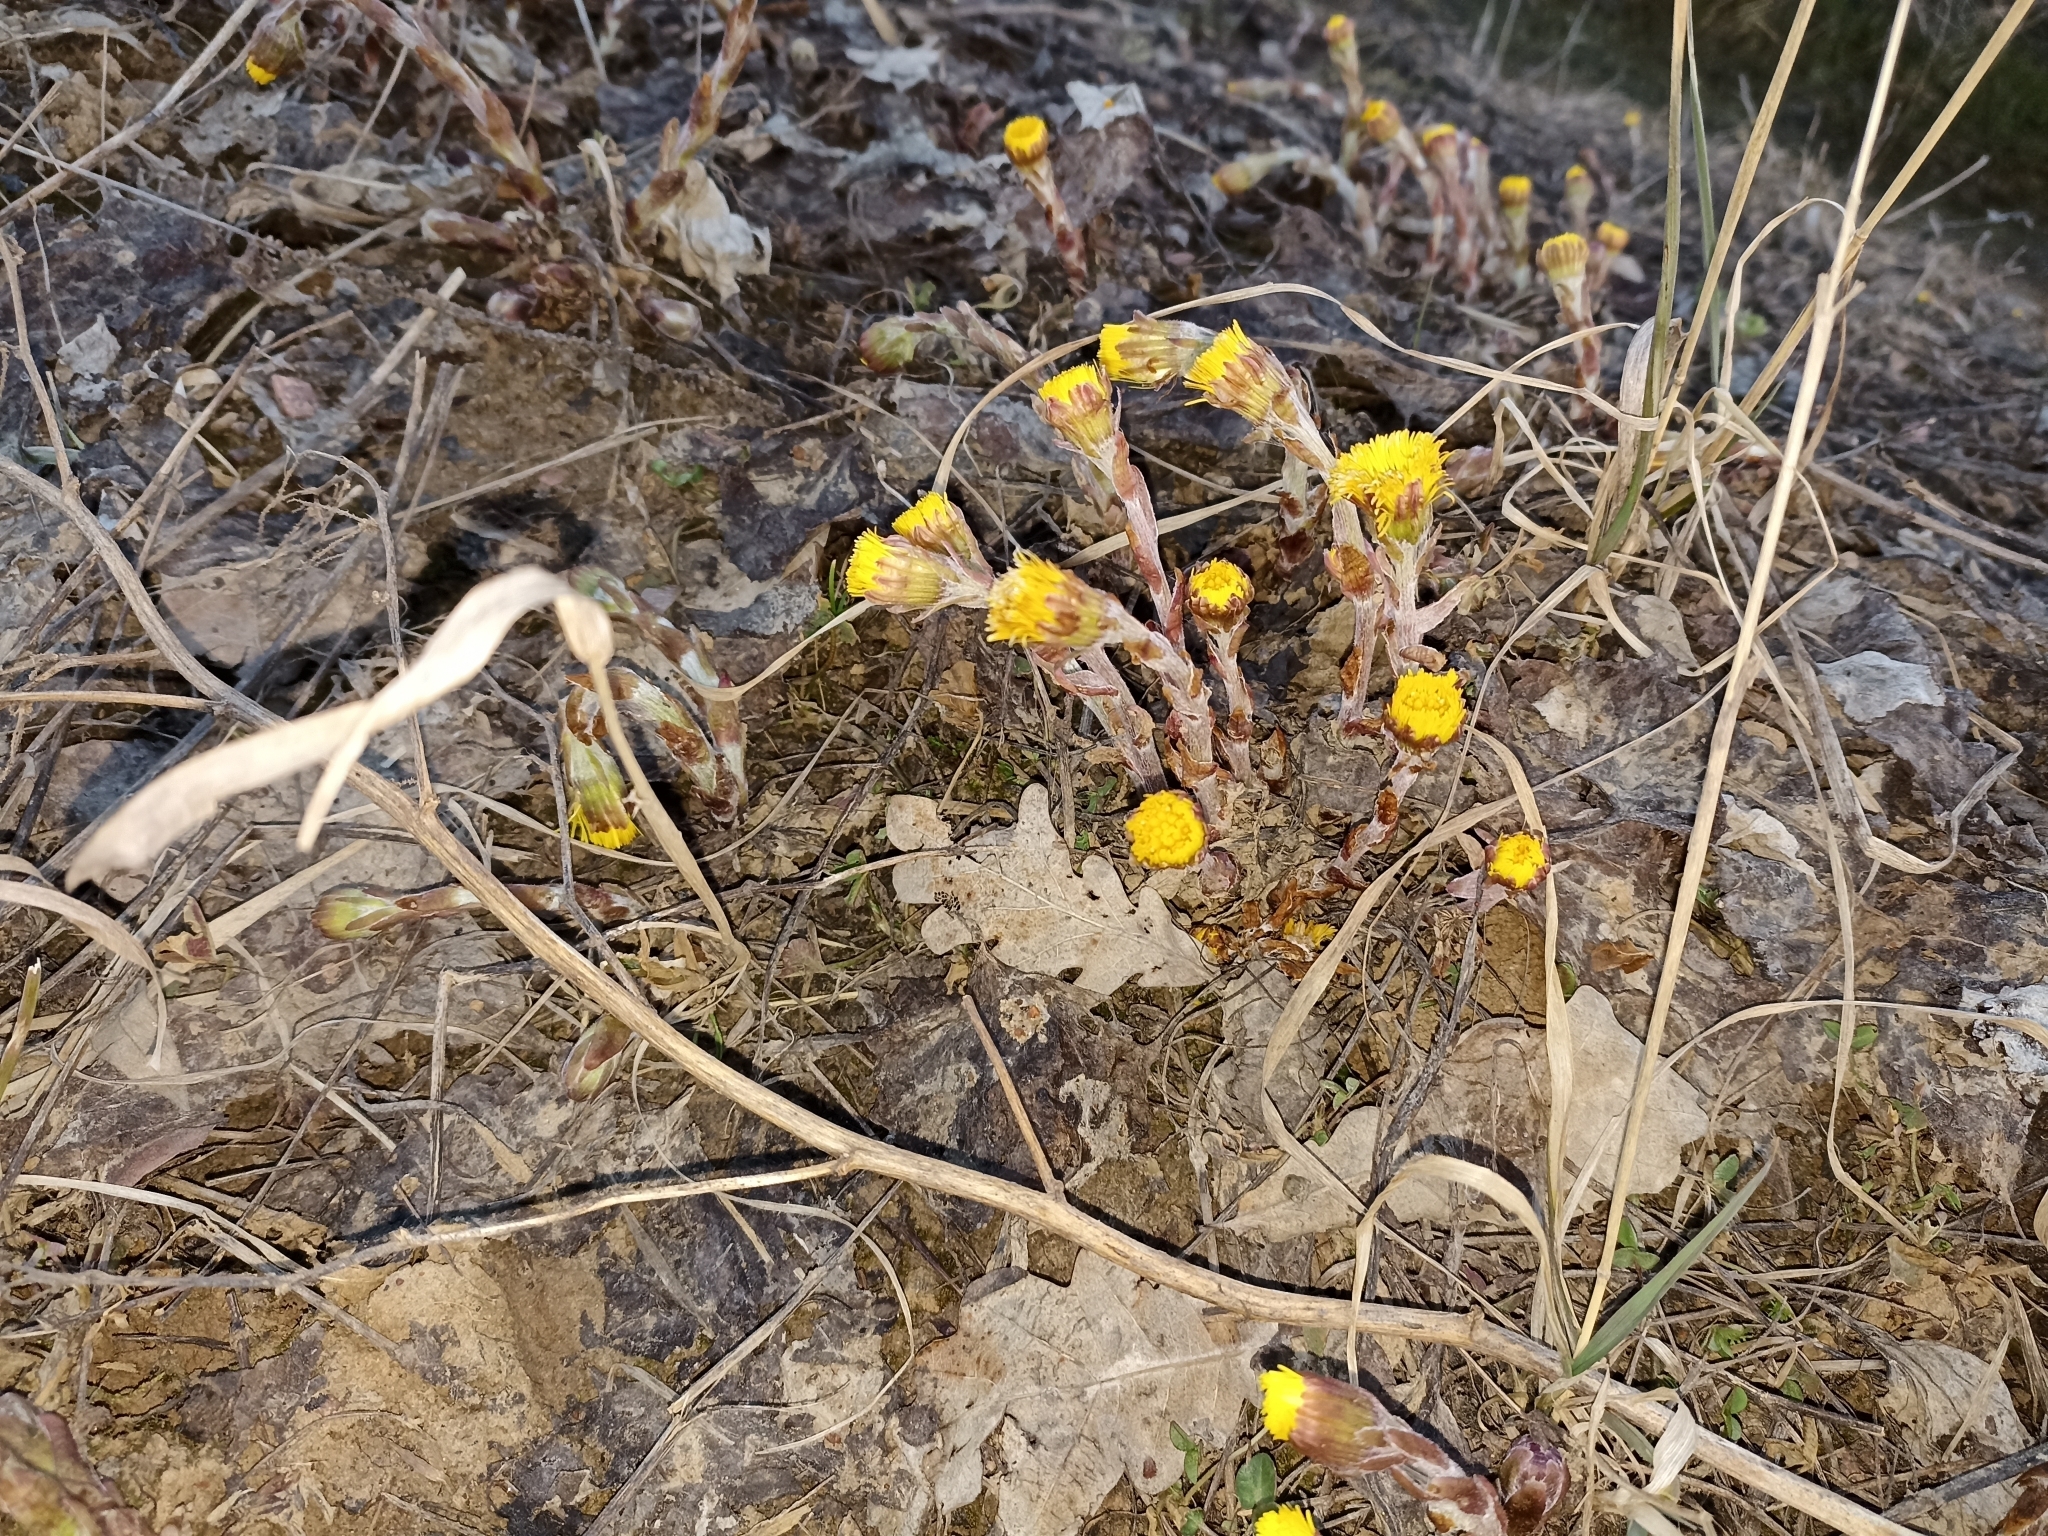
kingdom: Plantae
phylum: Tracheophyta
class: Magnoliopsida
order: Asterales
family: Asteraceae
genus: Tussilago
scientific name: Tussilago farfara
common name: Coltsfoot
